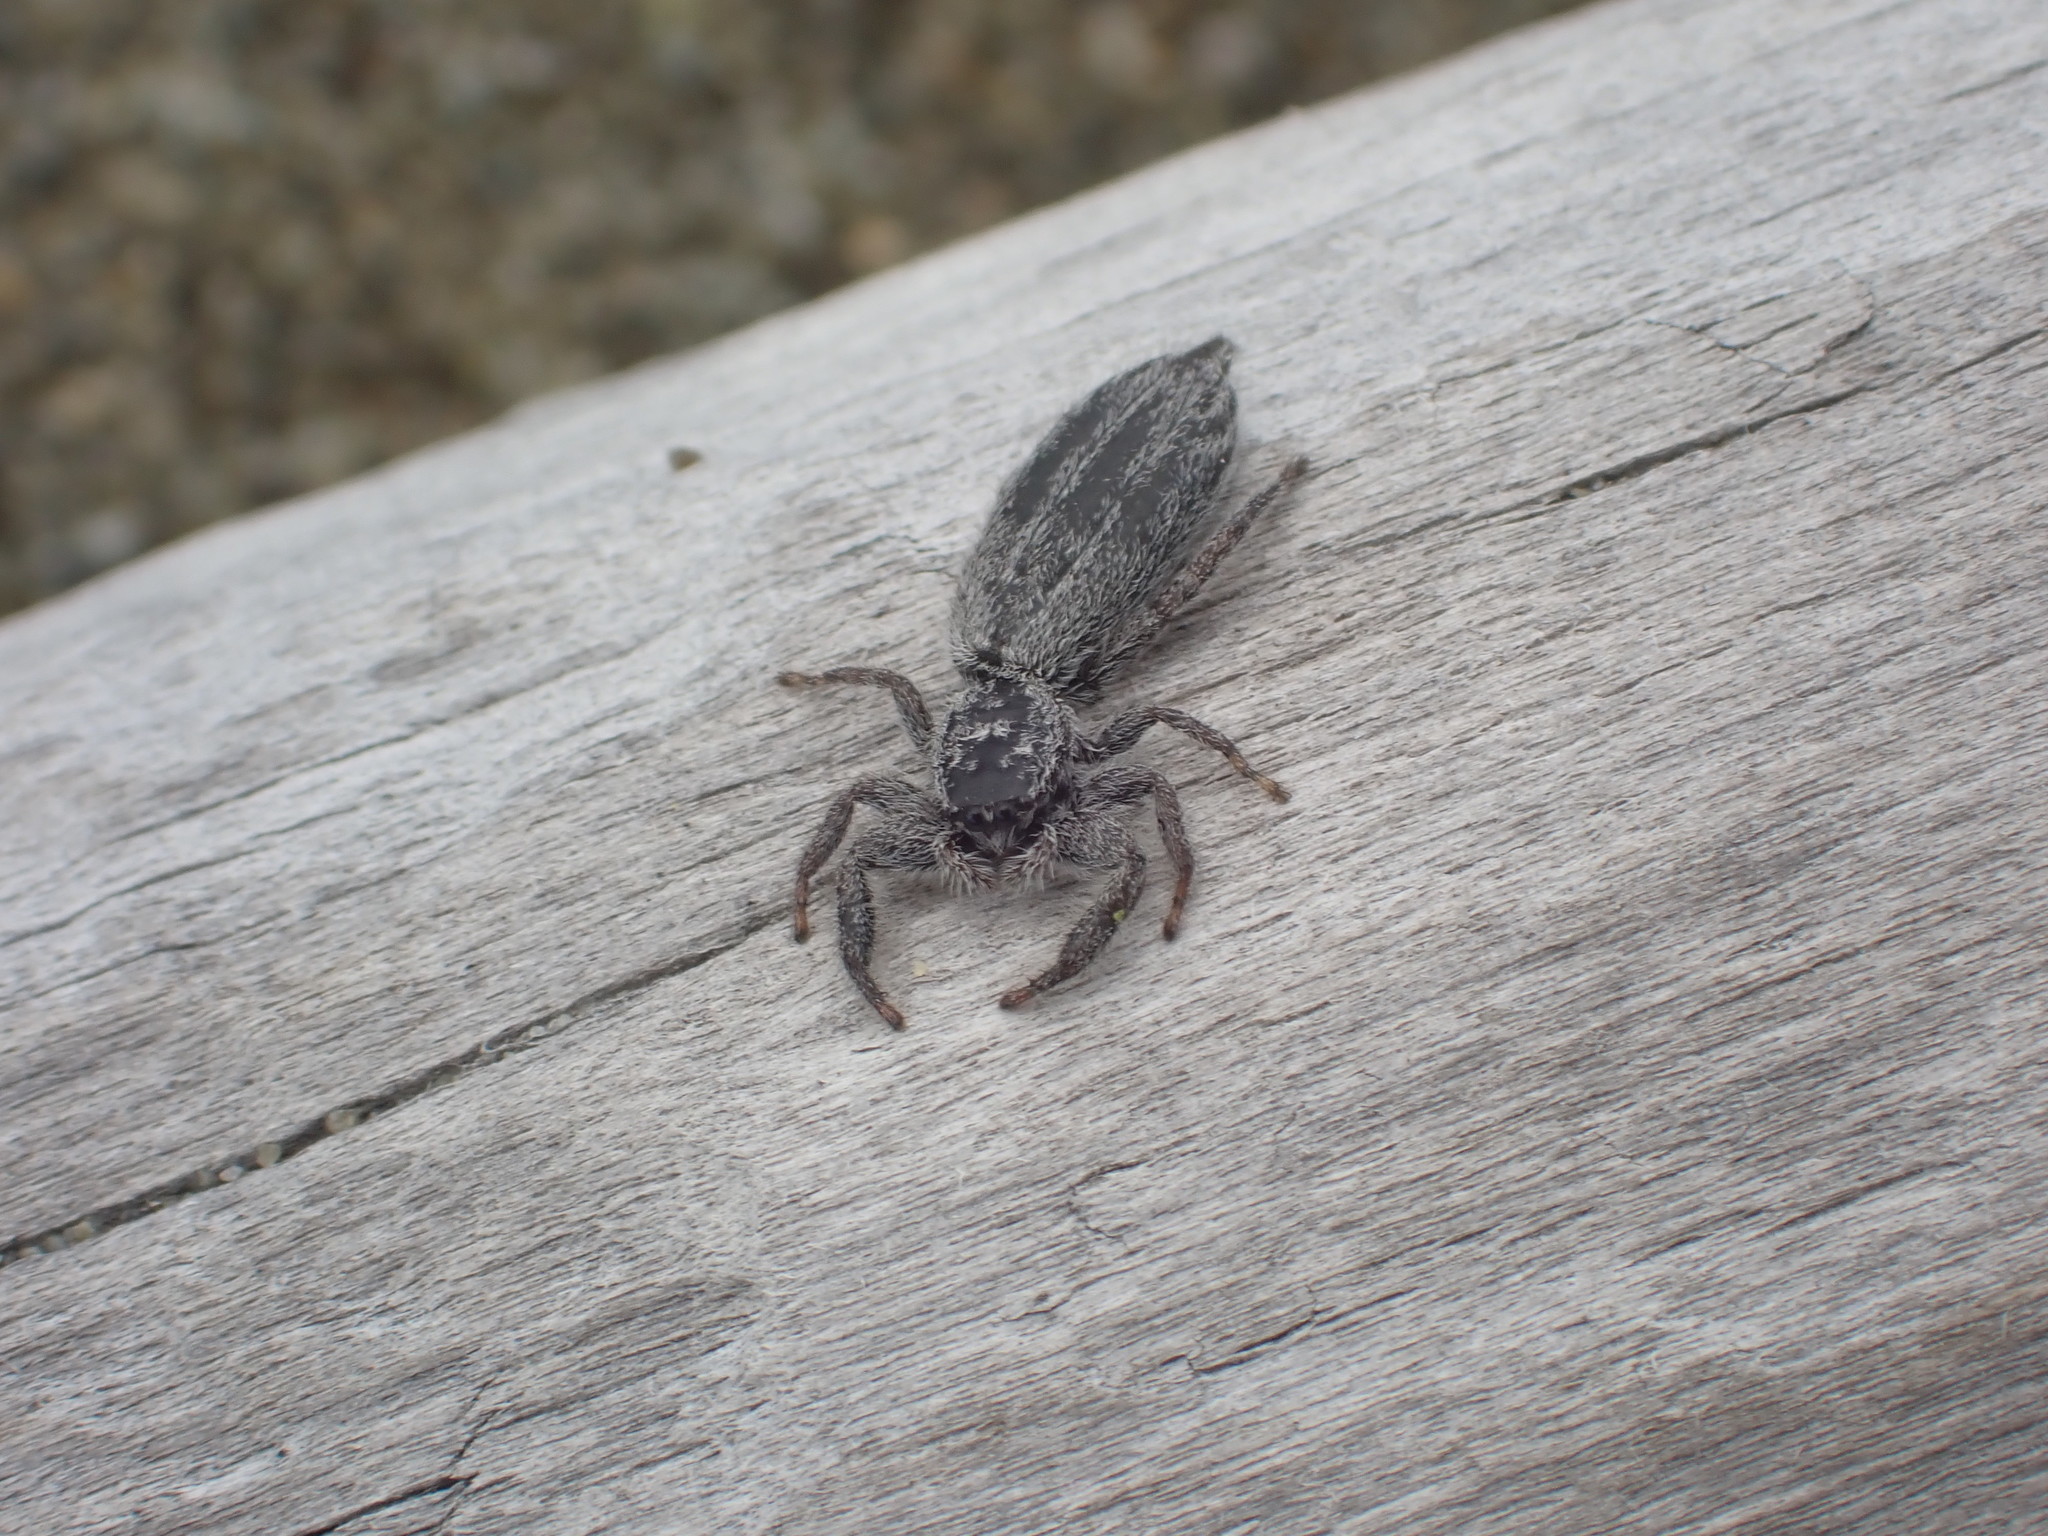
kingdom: Animalia
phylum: Arthropoda
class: Arachnida
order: Araneae
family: Salticidae
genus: Holoplatys
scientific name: Holoplatys apressus
